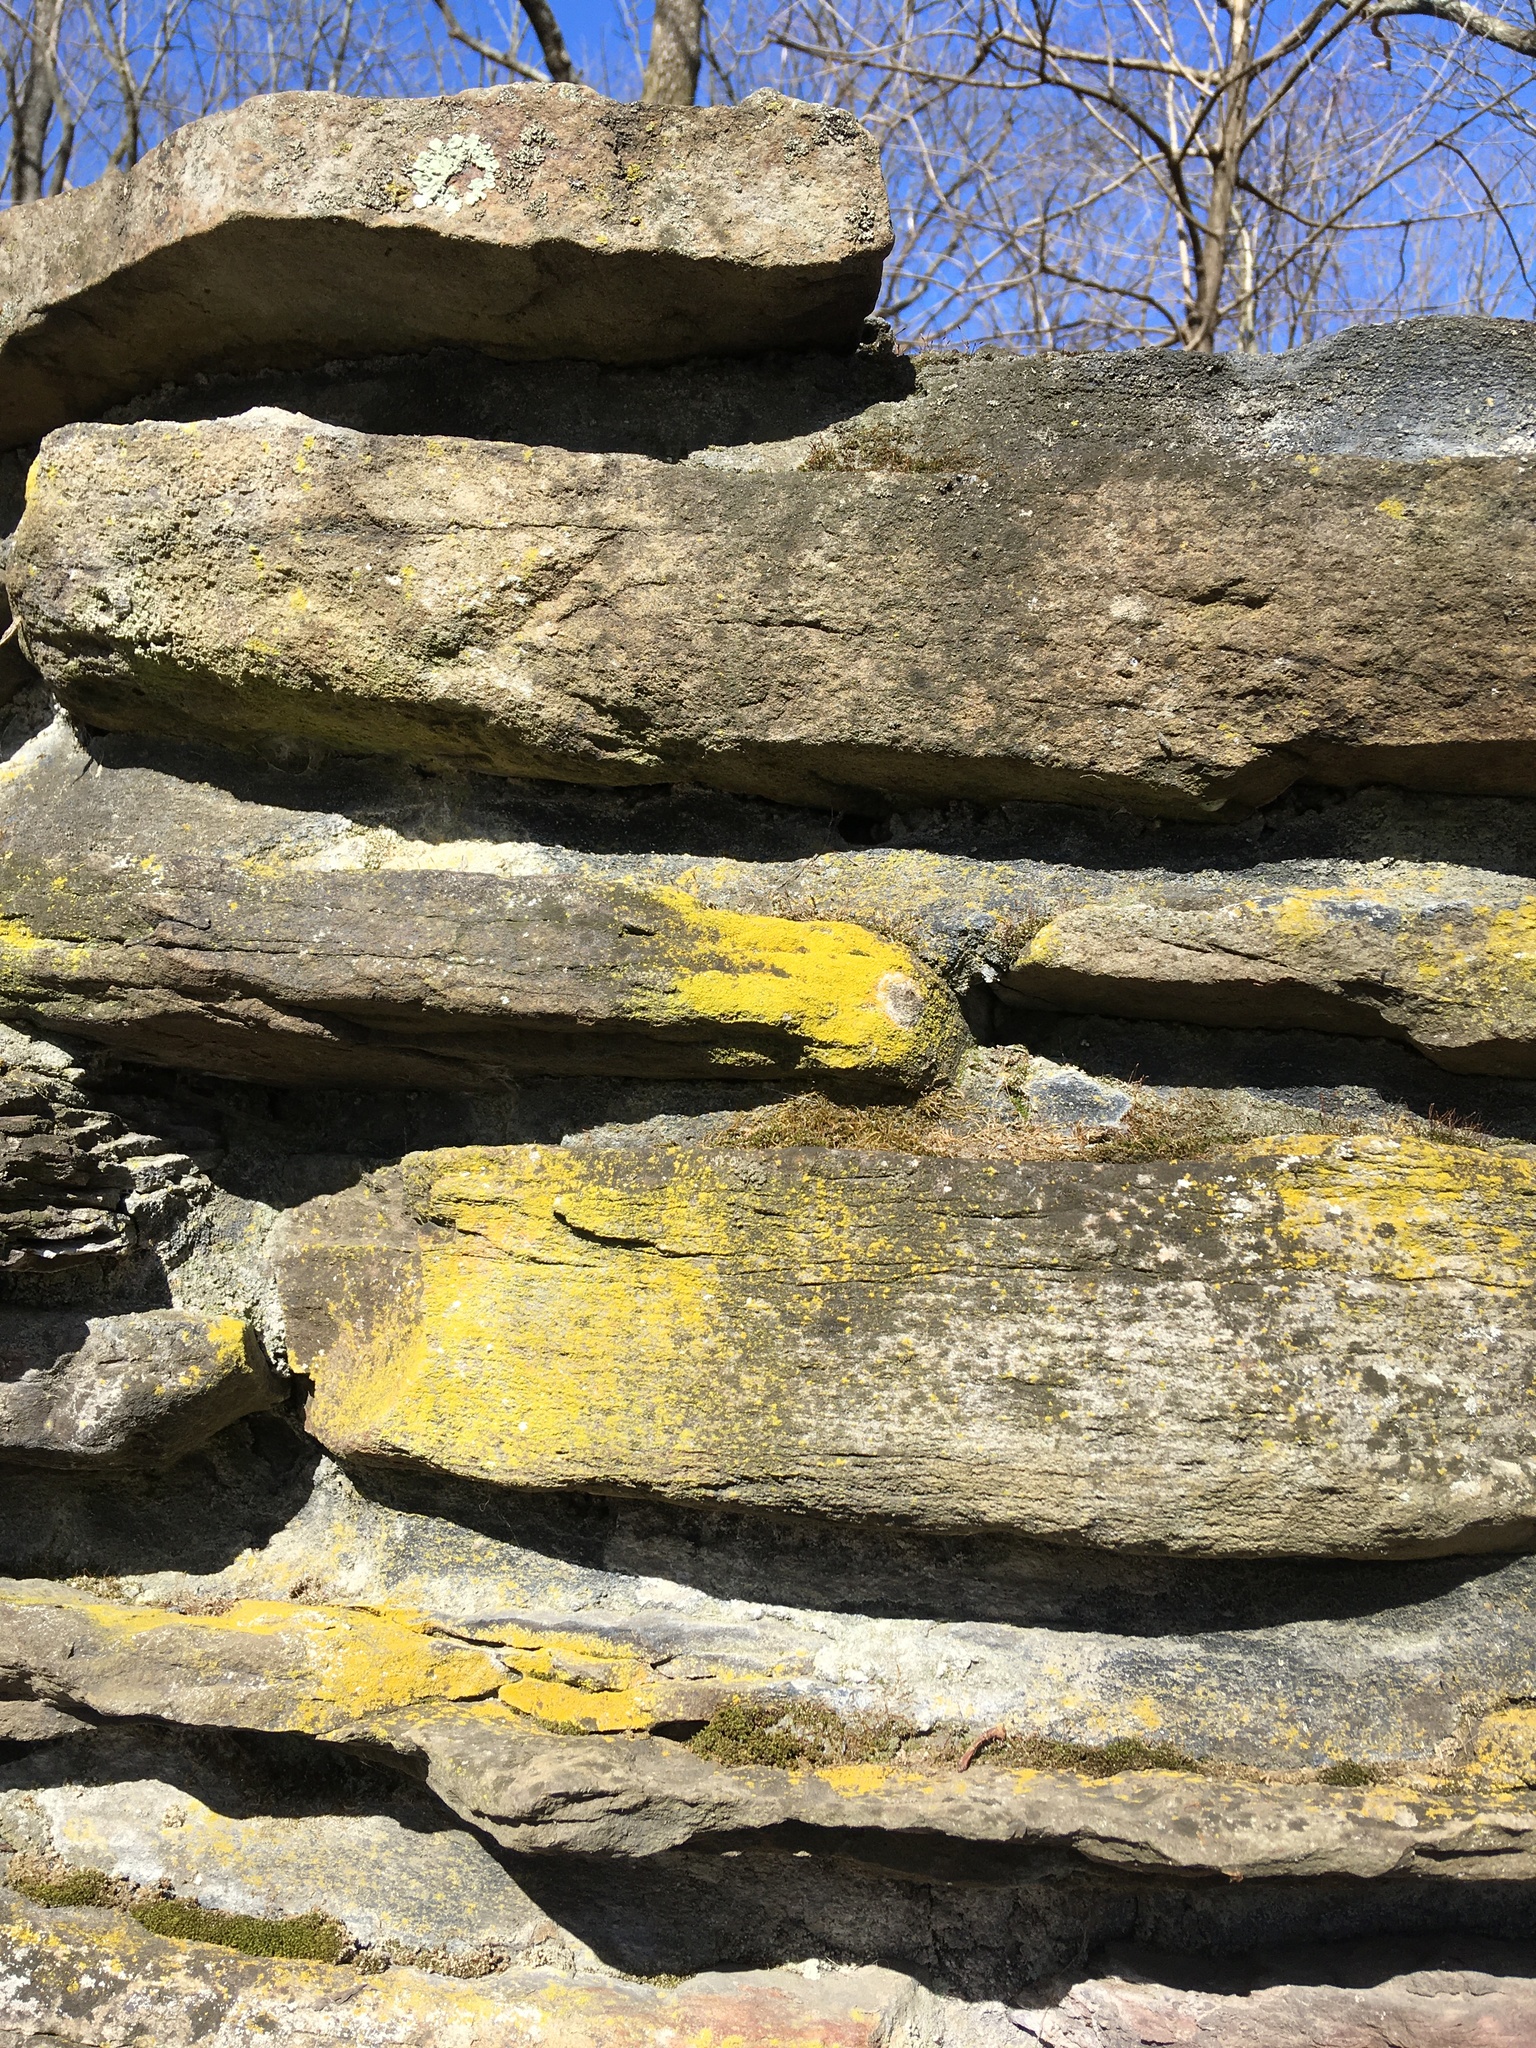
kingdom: Fungi
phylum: Ascomycota
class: Candelariomycetes
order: Candelariales
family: Candelariaceae
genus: Candelariella
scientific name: Candelariella vitellina
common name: Common goldspeck
